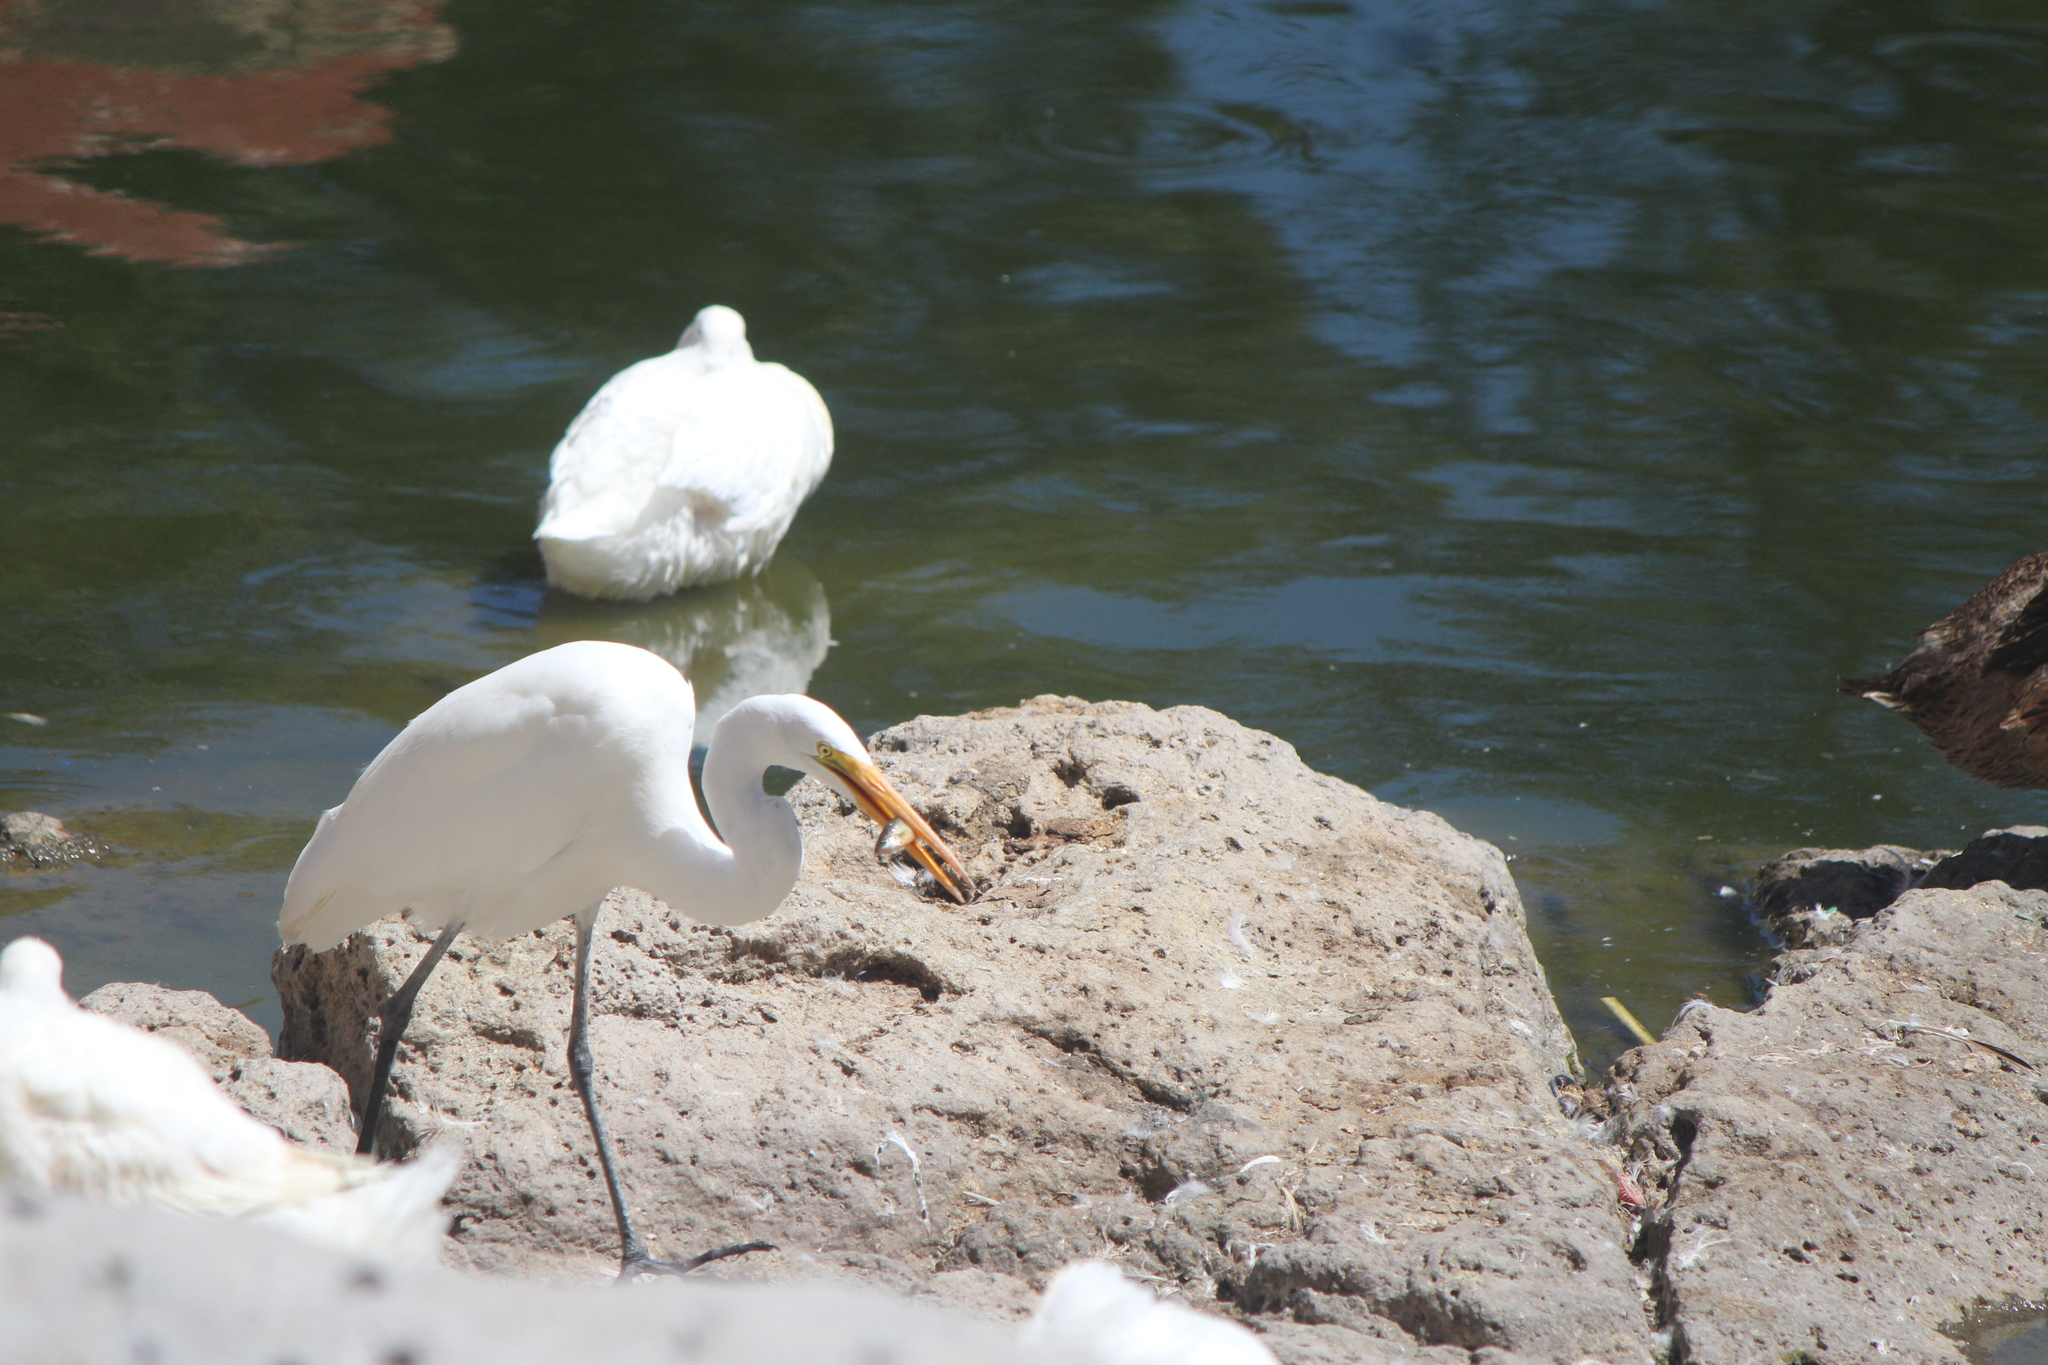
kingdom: Animalia
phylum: Chordata
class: Aves
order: Pelecaniformes
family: Ardeidae
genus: Ardea
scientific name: Ardea alba
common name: Great egret
